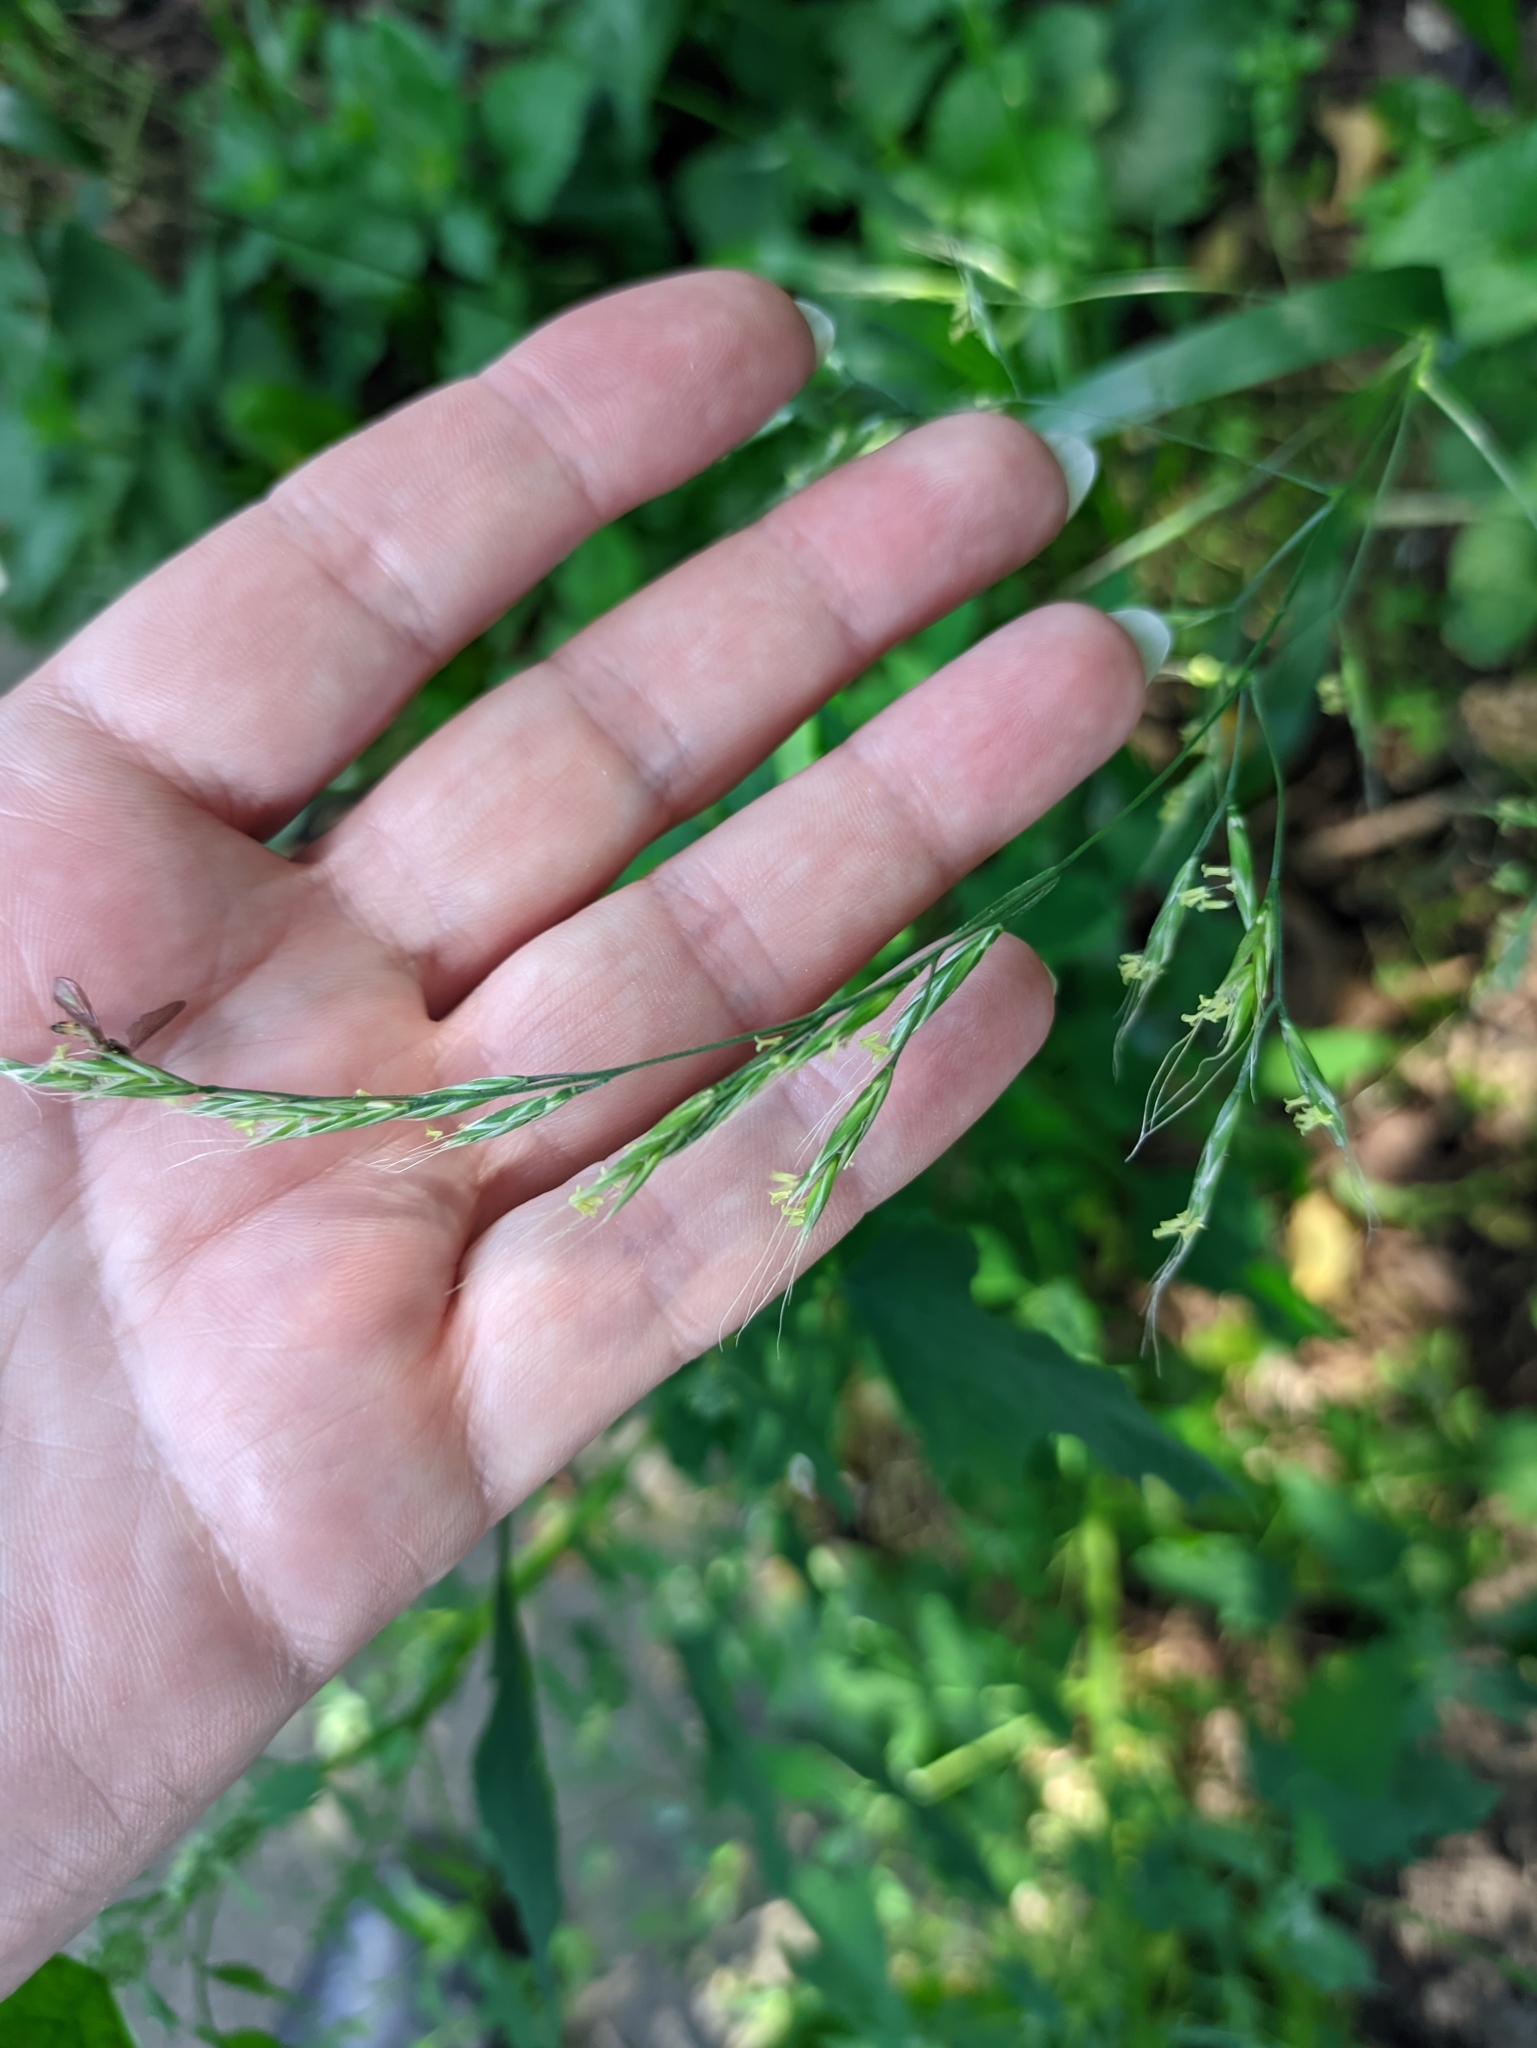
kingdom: Plantae
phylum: Tracheophyta
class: Liliopsida
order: Poales
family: Poaceae
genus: Lolium
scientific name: Lolium giganteum
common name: Giant fescue
